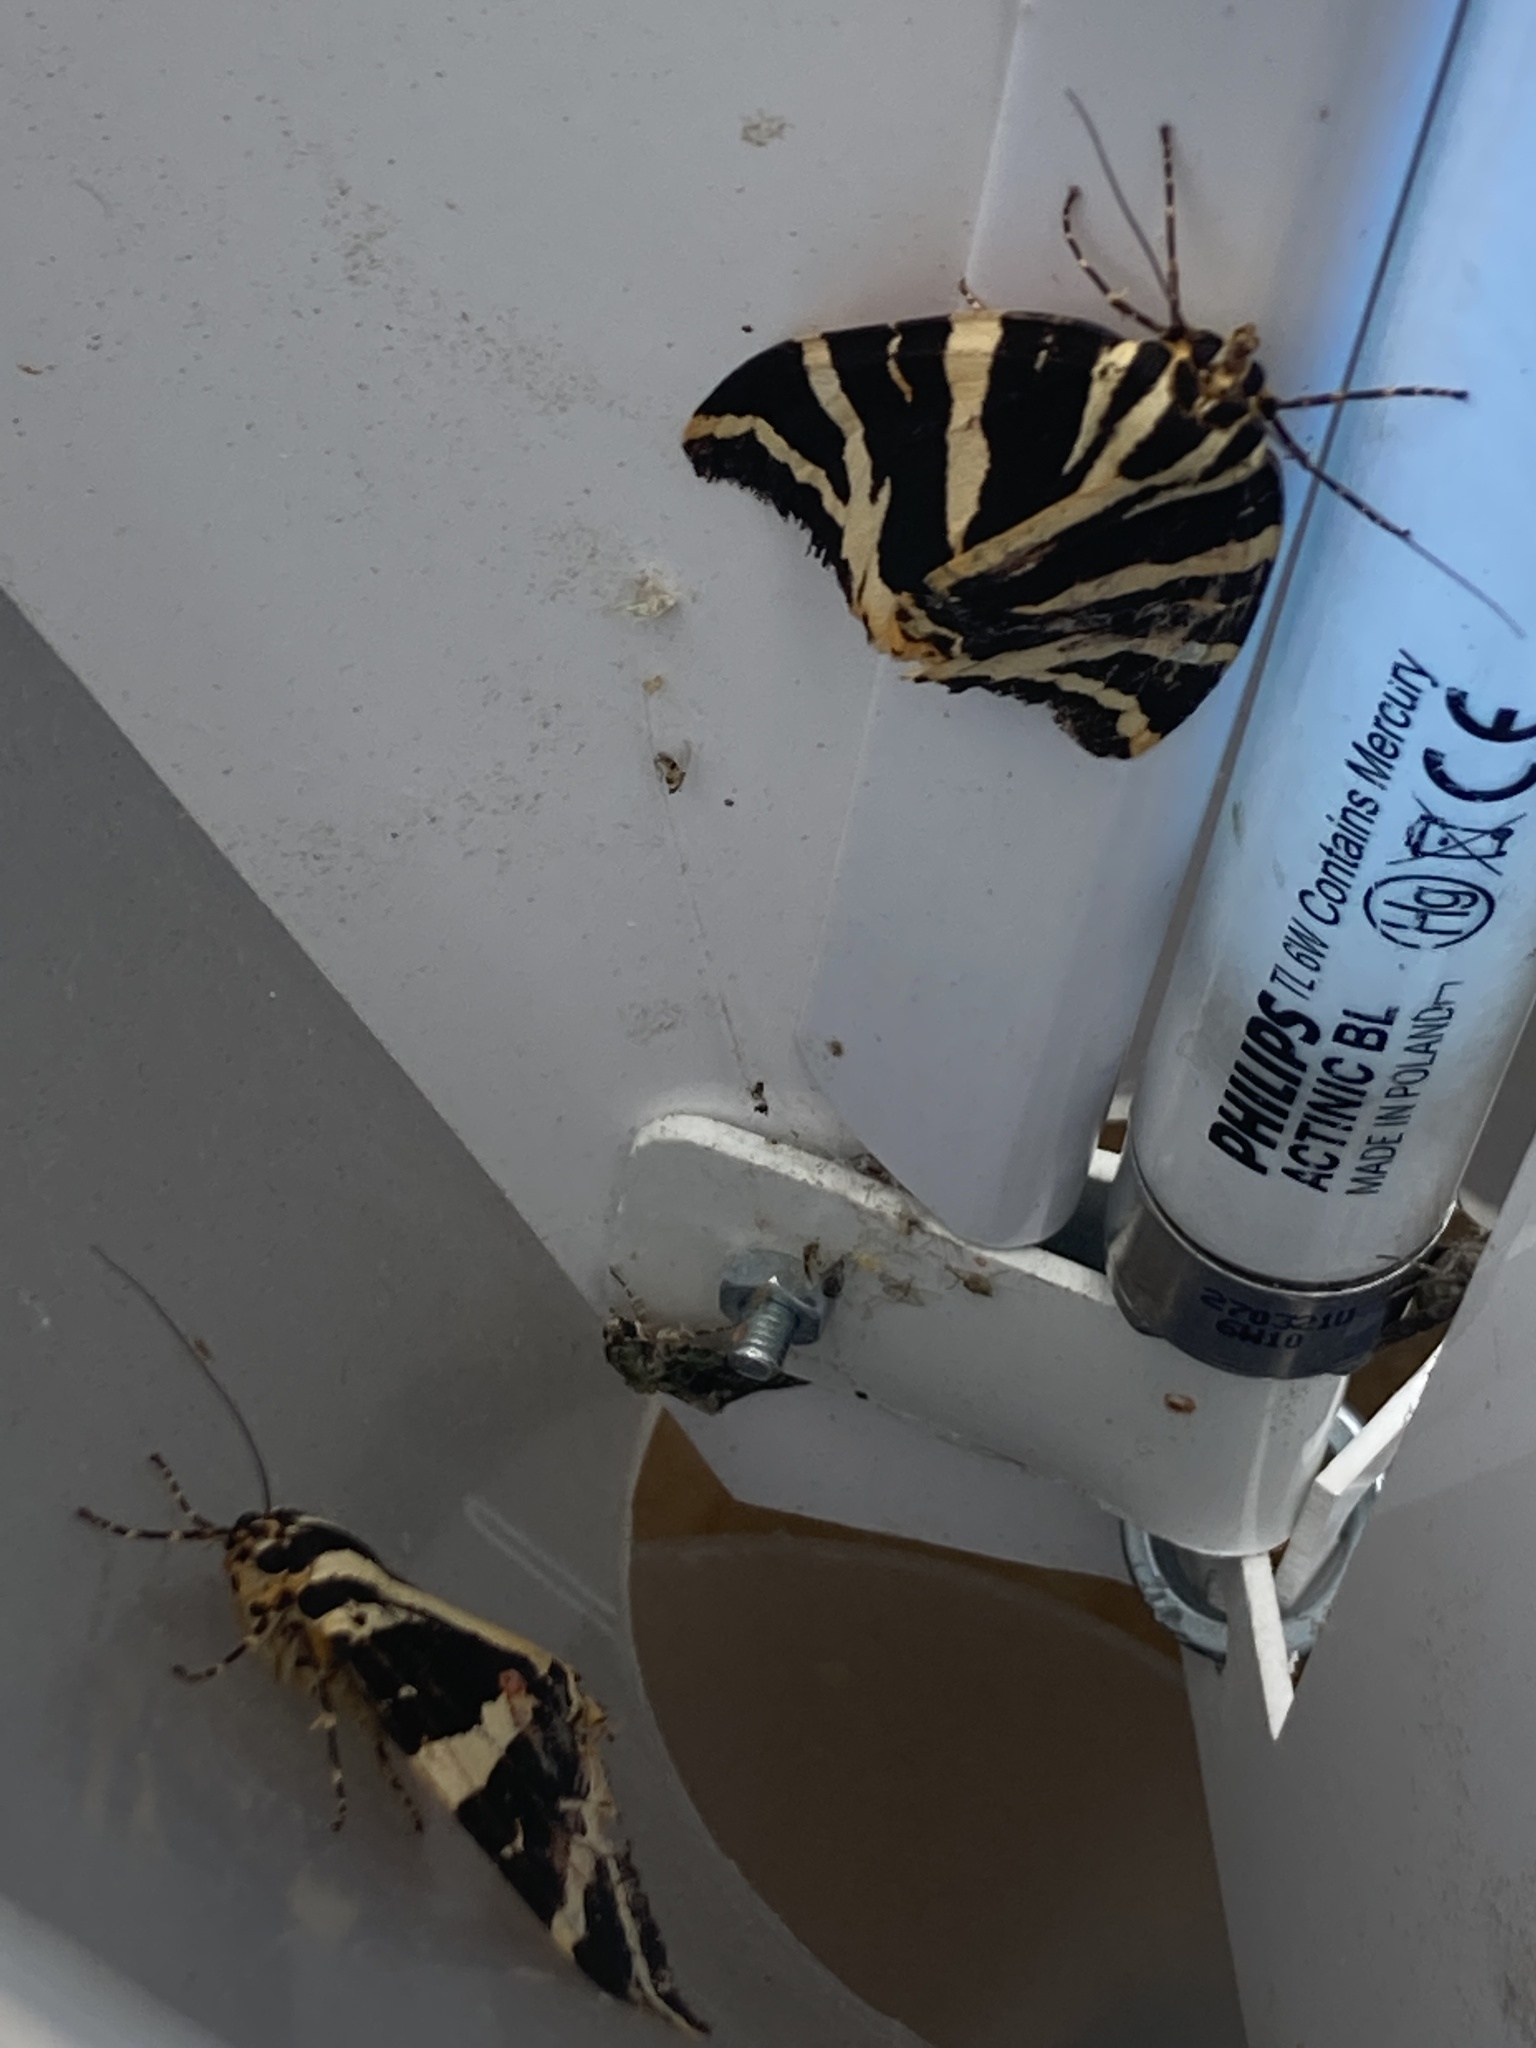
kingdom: Animalia
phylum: Arthropoda
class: Insecta
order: Lepidoptera
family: Erebidae
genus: Euplagia
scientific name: Euplagia quadripunctaria
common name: Jersey tiger
